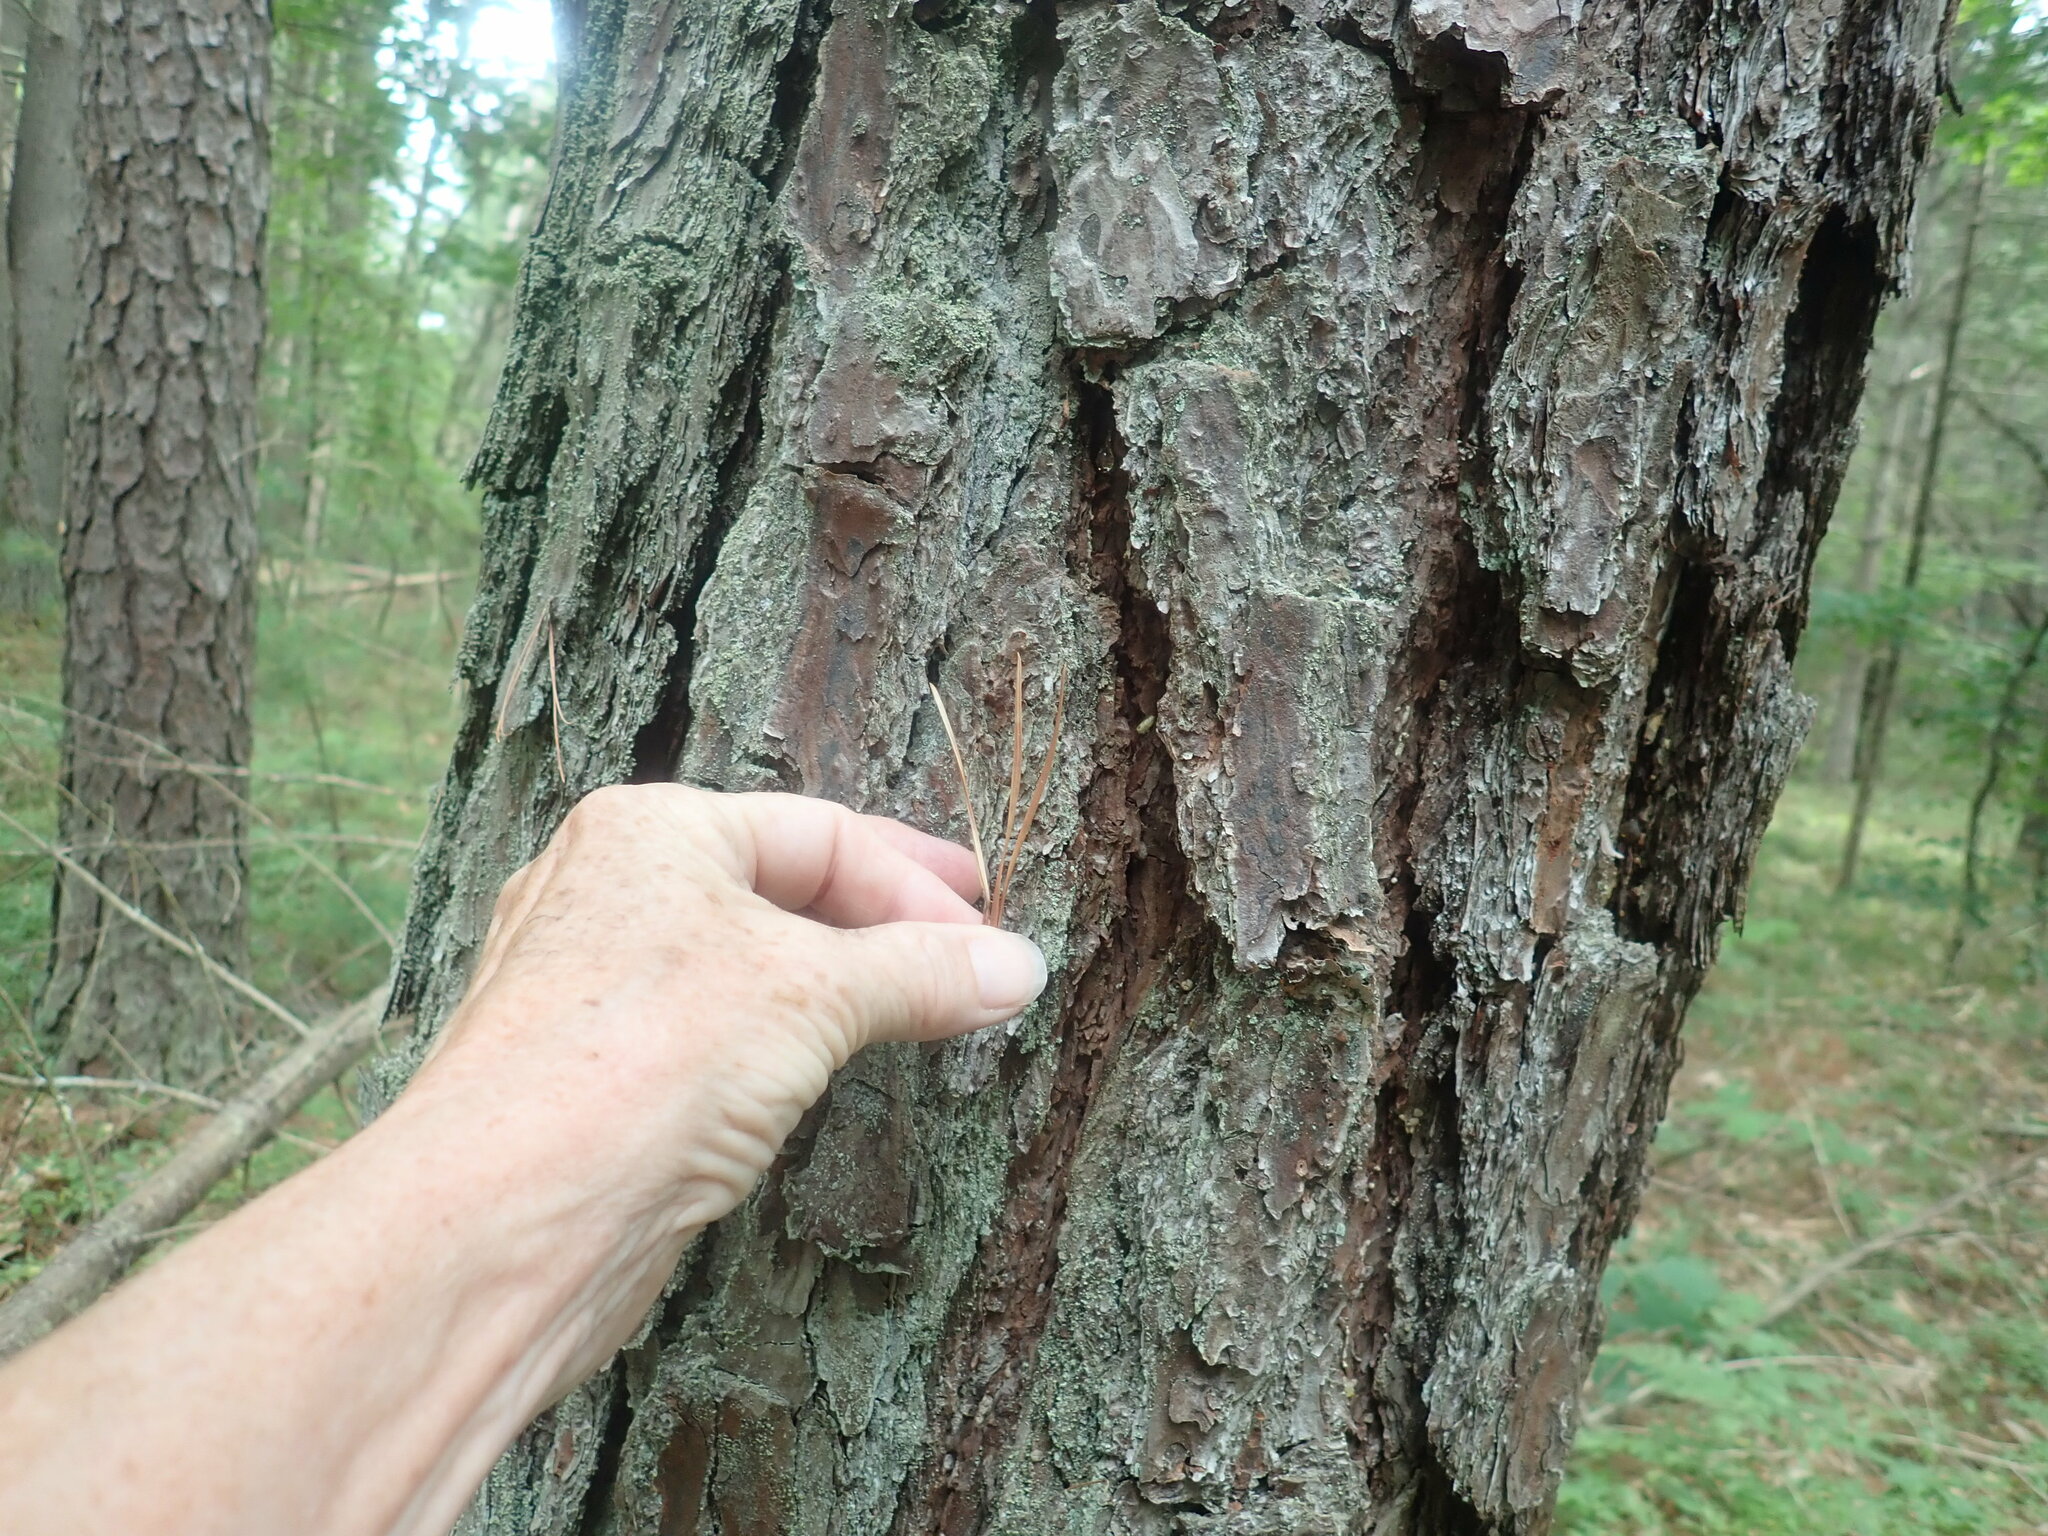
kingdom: Plantae
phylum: Tracheophyta
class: Pinopsida
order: Pinales
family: Pinaceae
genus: Pinus
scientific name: Pinus rigida
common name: Pitch pine
